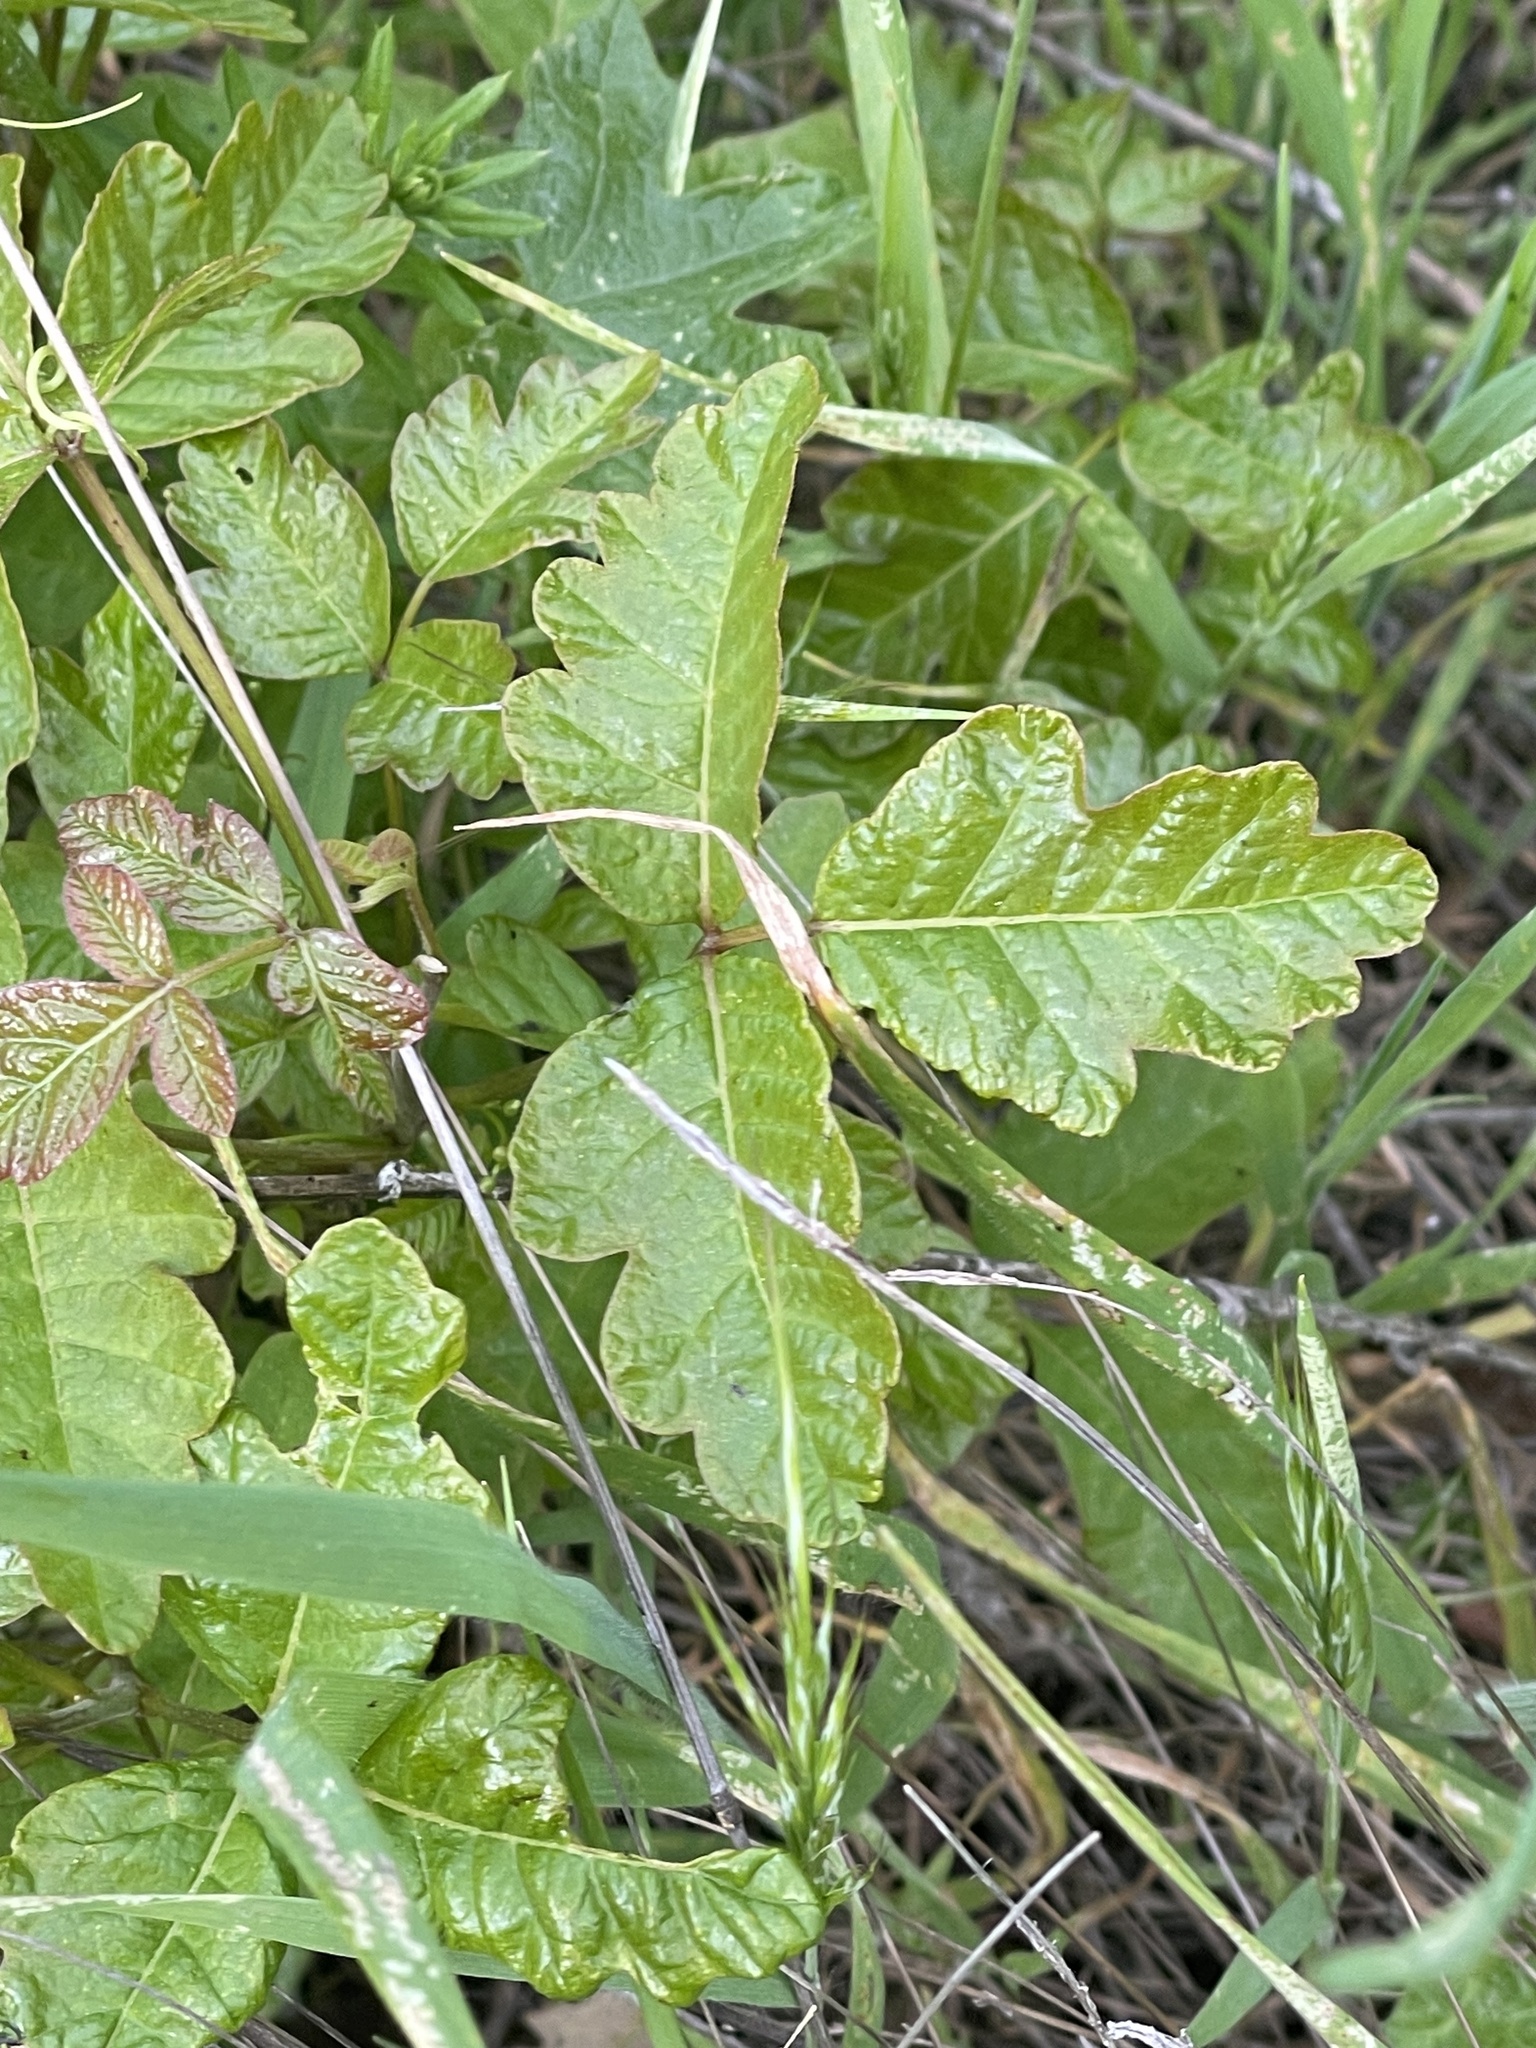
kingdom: Plantae
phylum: Tracheophyta
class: Magnoliopsida
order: Sapindales
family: Anacardiaceae
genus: Toxicodendron
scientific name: Toxicodendron diversilobum
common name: Pacific poison-oak
